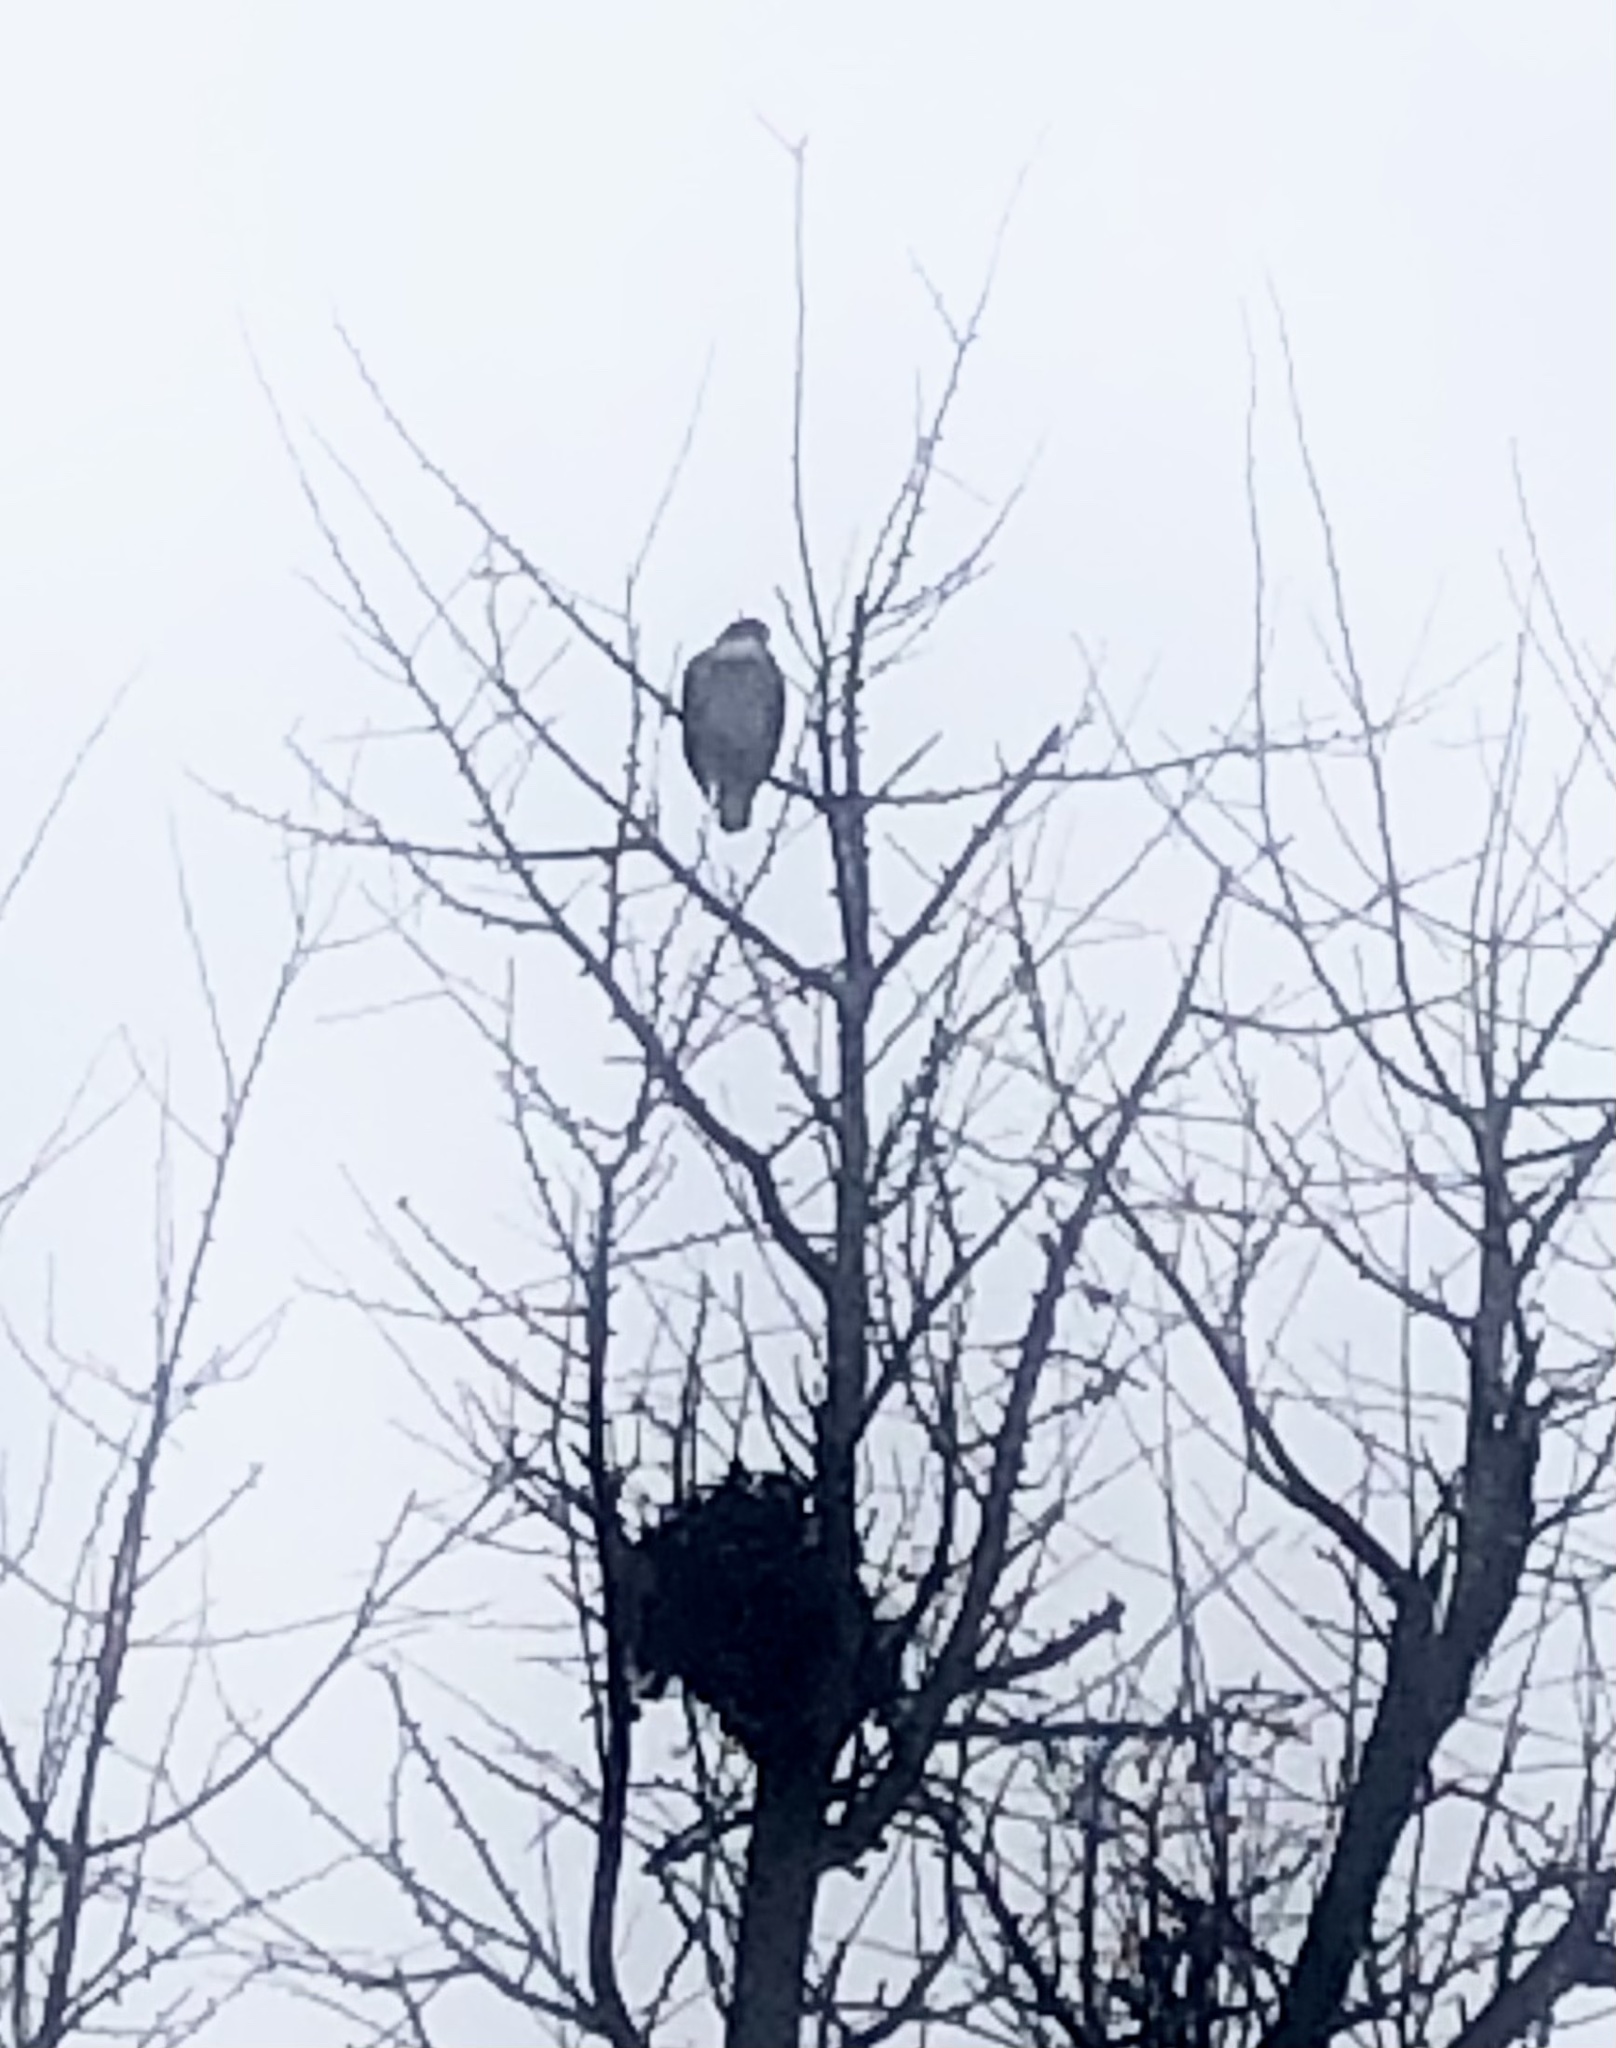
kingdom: Animalia
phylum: Chordata
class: Aves
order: Accipitriformes
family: Accipitridae
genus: Buteo
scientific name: Buteo jamaicensis
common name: Red-tailed hawk
